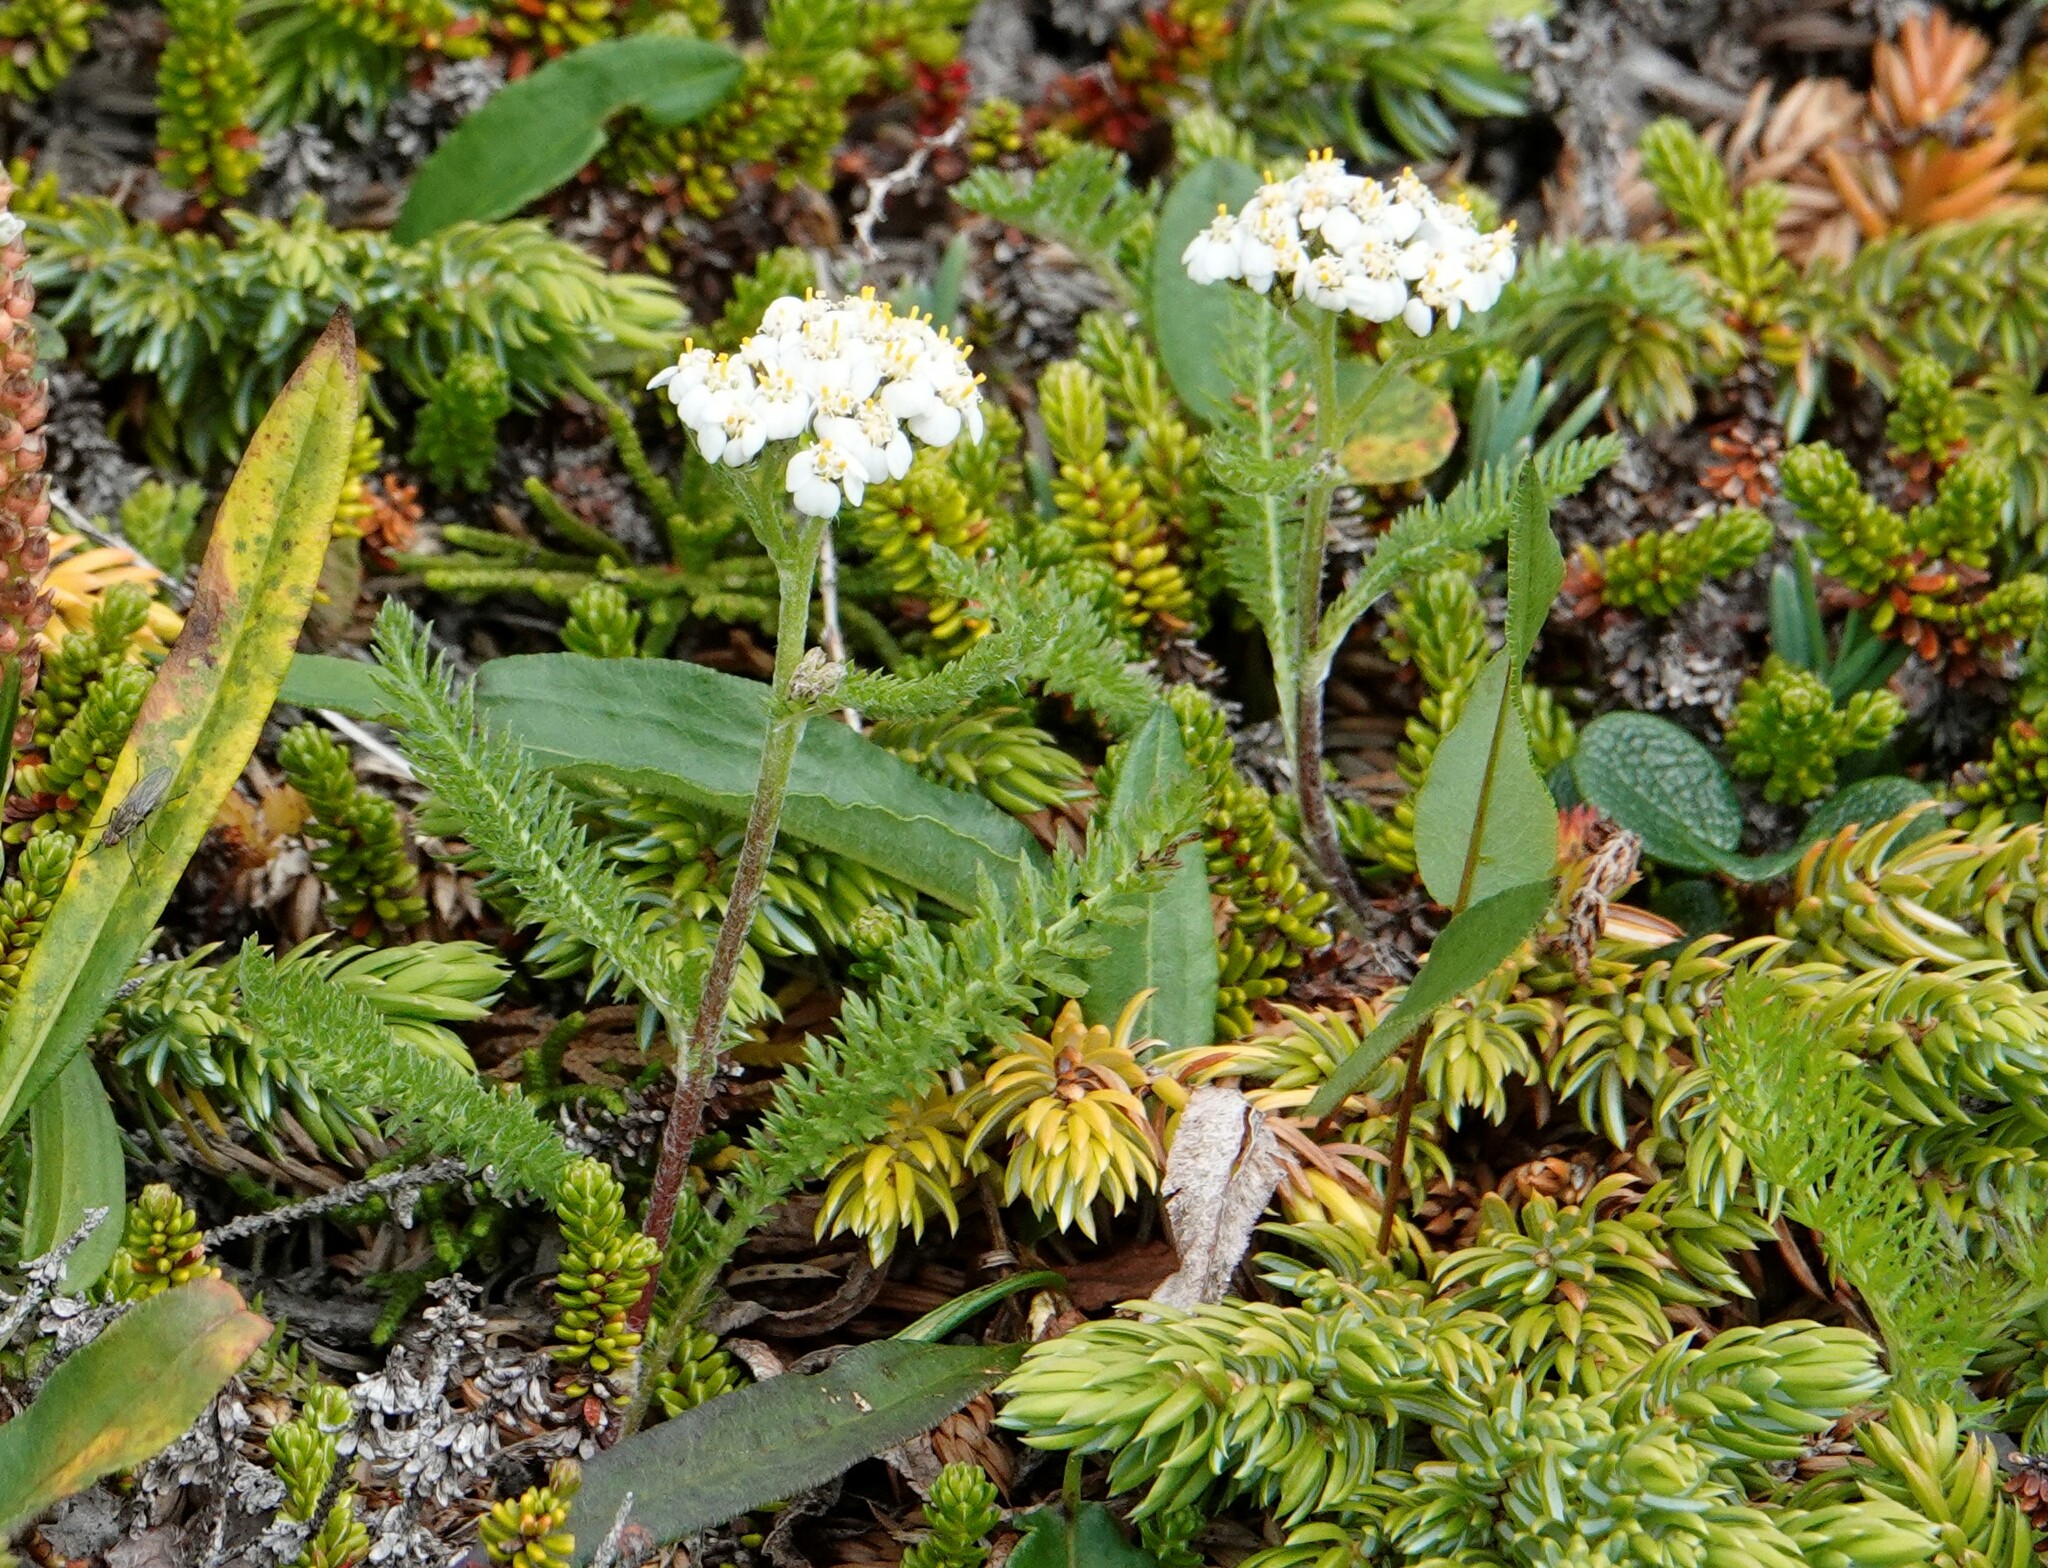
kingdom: Plantae
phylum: Tracheophyta
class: Magnoliopsida
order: Asterales
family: Asteraceae
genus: Achillea
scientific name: Achillea millefolium
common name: Yarrow
